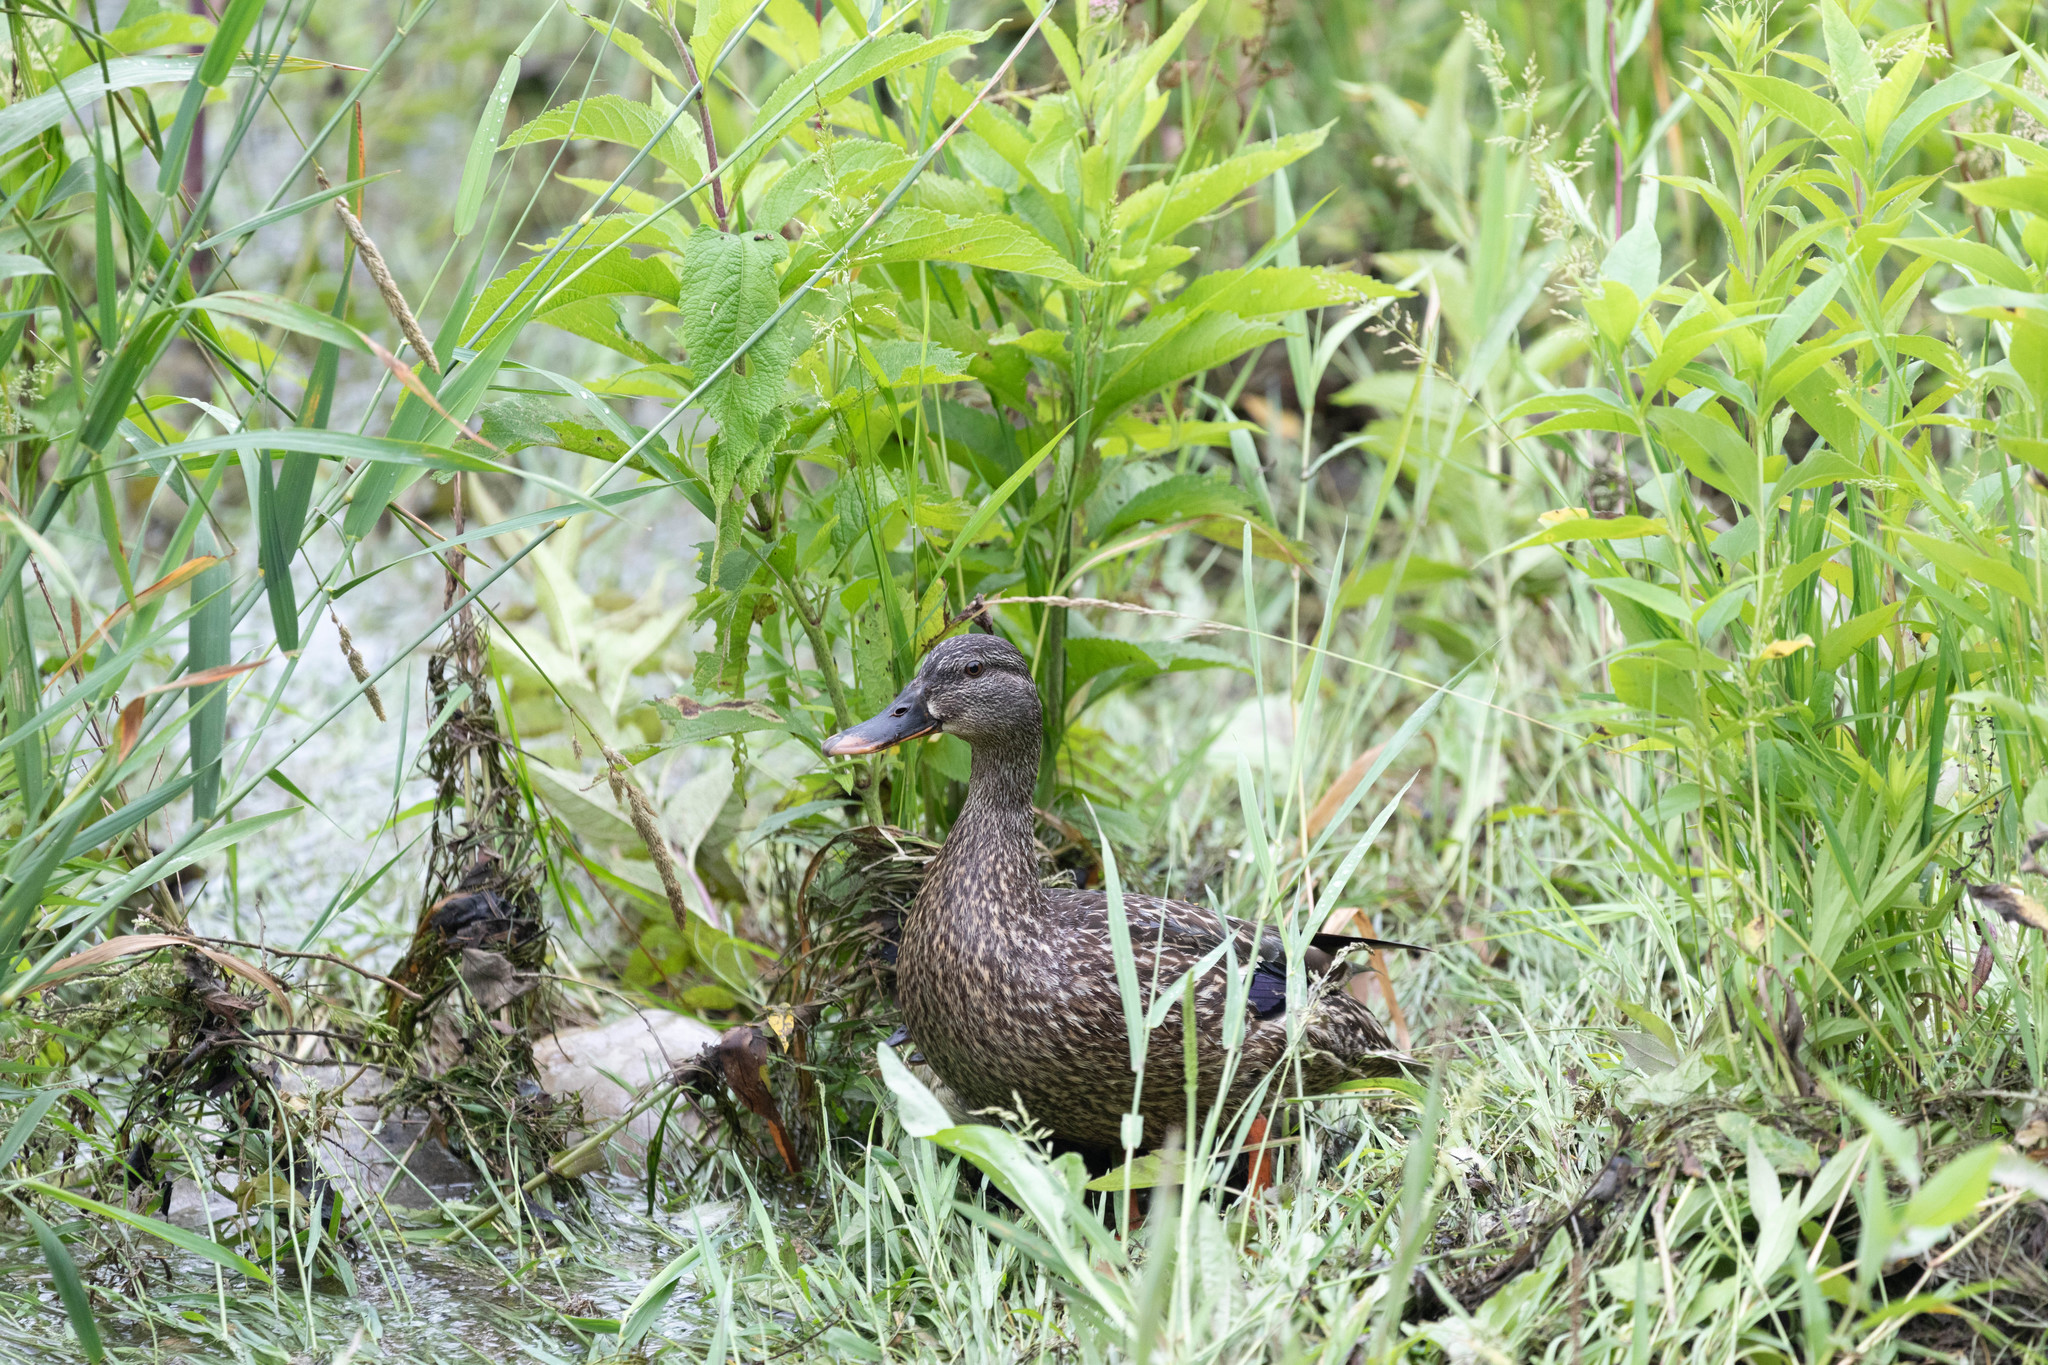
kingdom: Animalia
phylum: Chordata
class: Aves
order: Anseriformes
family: Anatidae
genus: Anas
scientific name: Anas platyrhynchos
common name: Mallard
